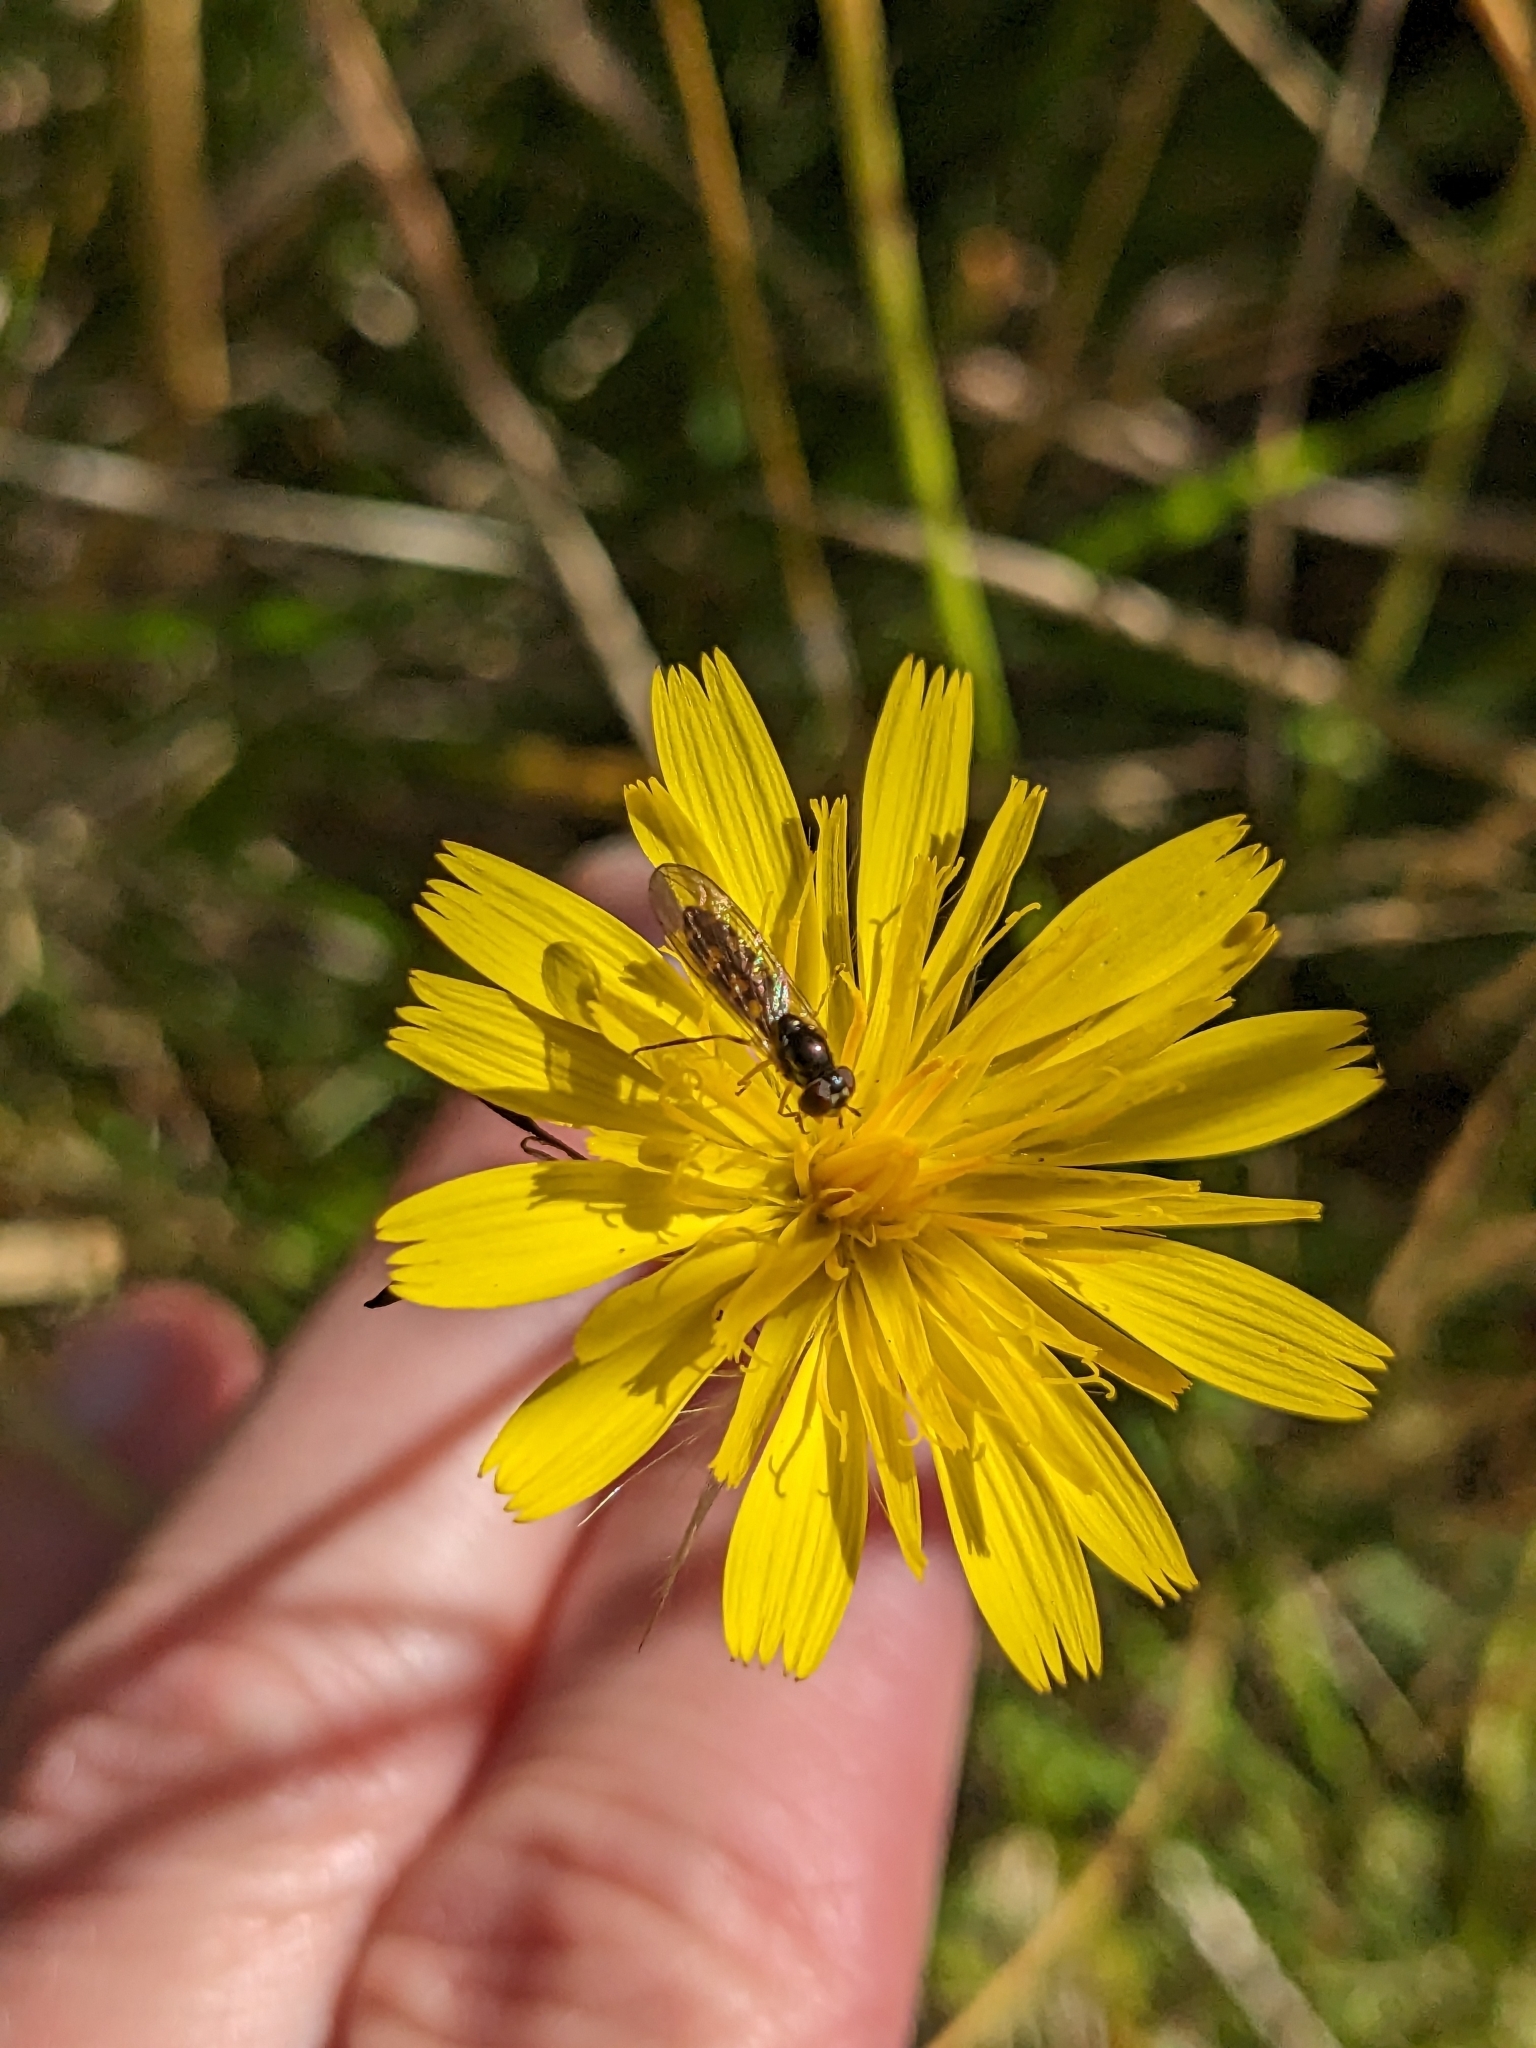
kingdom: Animalia
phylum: Arthropoda
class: Insecta
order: Diptera
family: Syrphidae
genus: Melanostoma
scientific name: Melanostoma scalare
